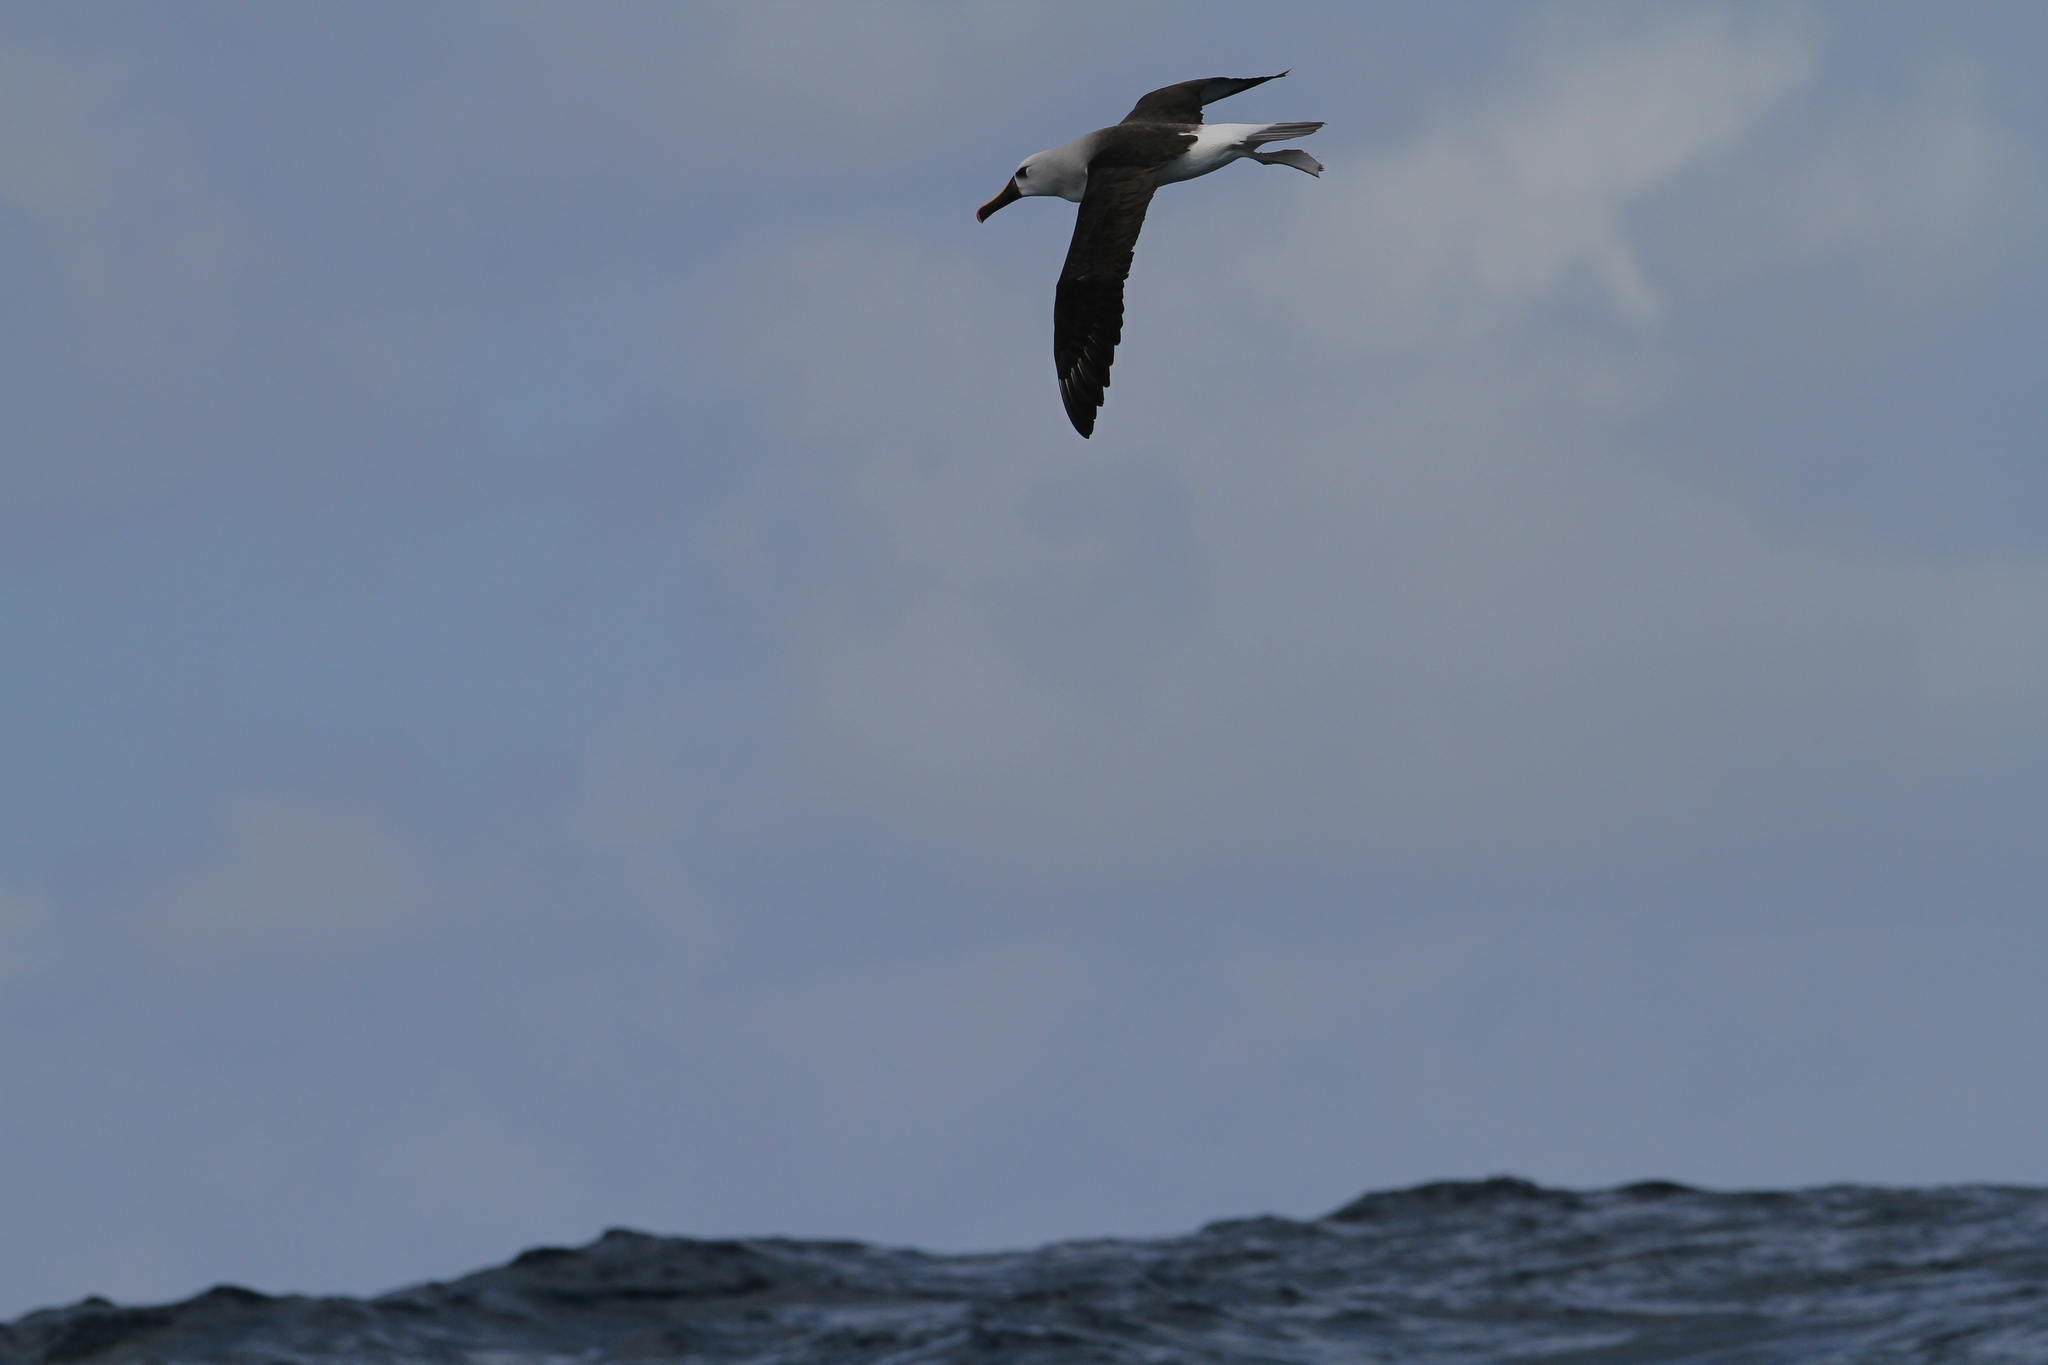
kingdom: Animalia
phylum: Chordata
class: Aves
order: Procellariiformes
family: Diomedeidae
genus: Thalassarche
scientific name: Thalassarche chlororhynchos
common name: Atlantic yellow-nosed albatross
